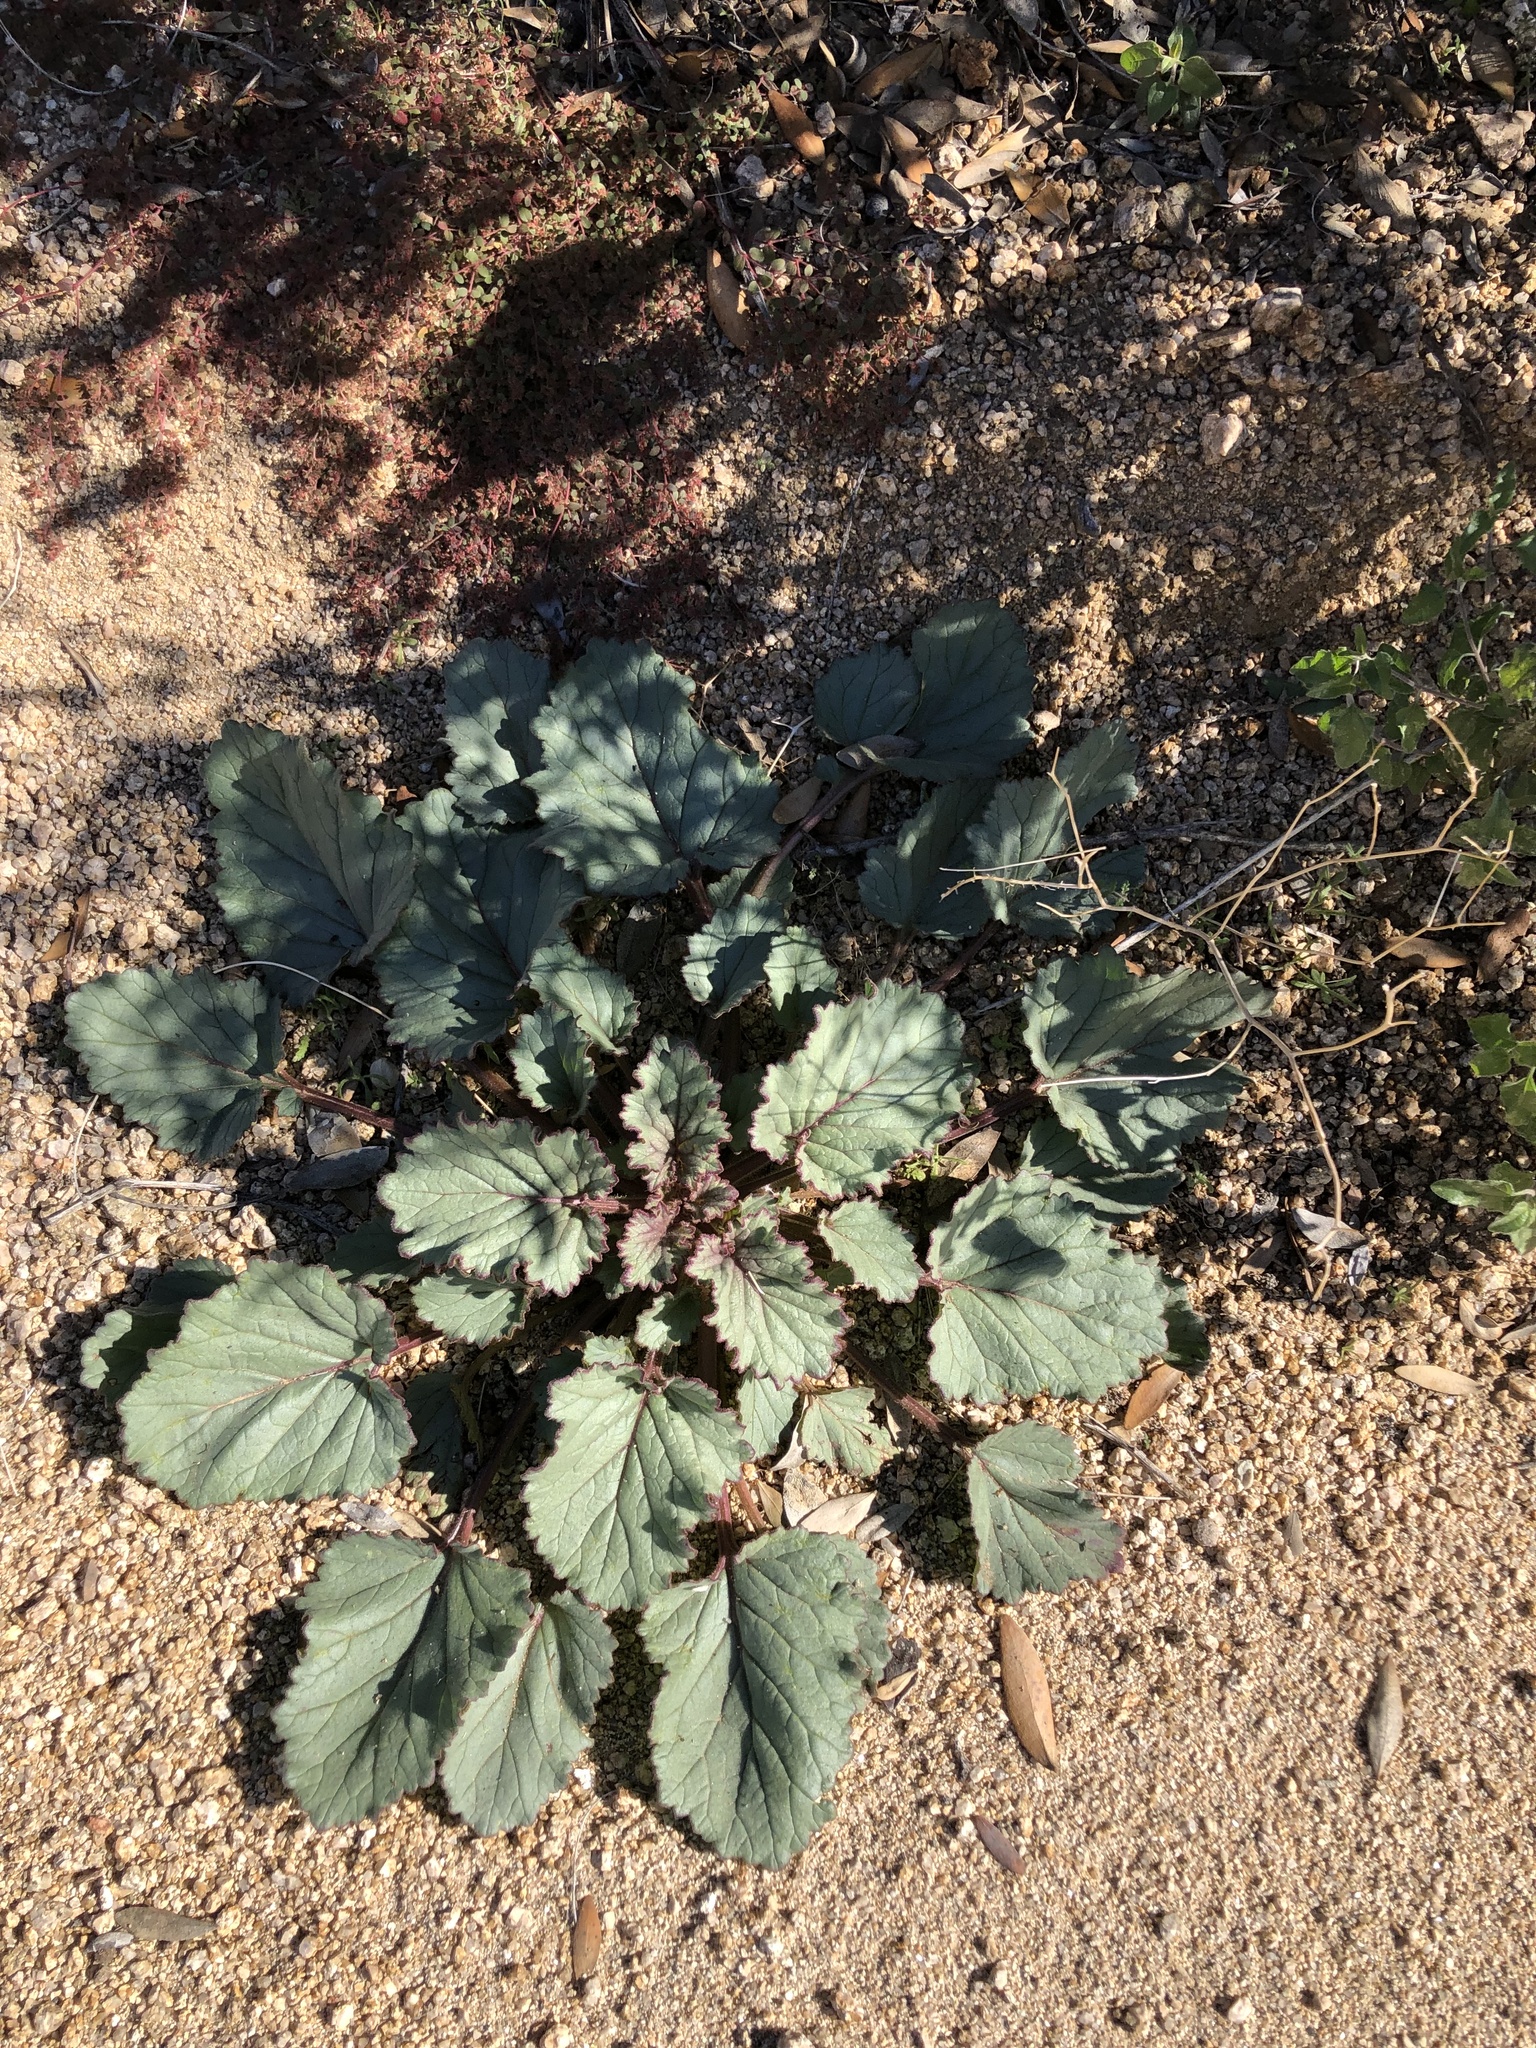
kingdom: Plantae
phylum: Tracheophyta
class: Magnoliopsida
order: Boraginales
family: Hydrophyllaceae
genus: Phacelia
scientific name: Phacelia campanularia
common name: California bluebell
